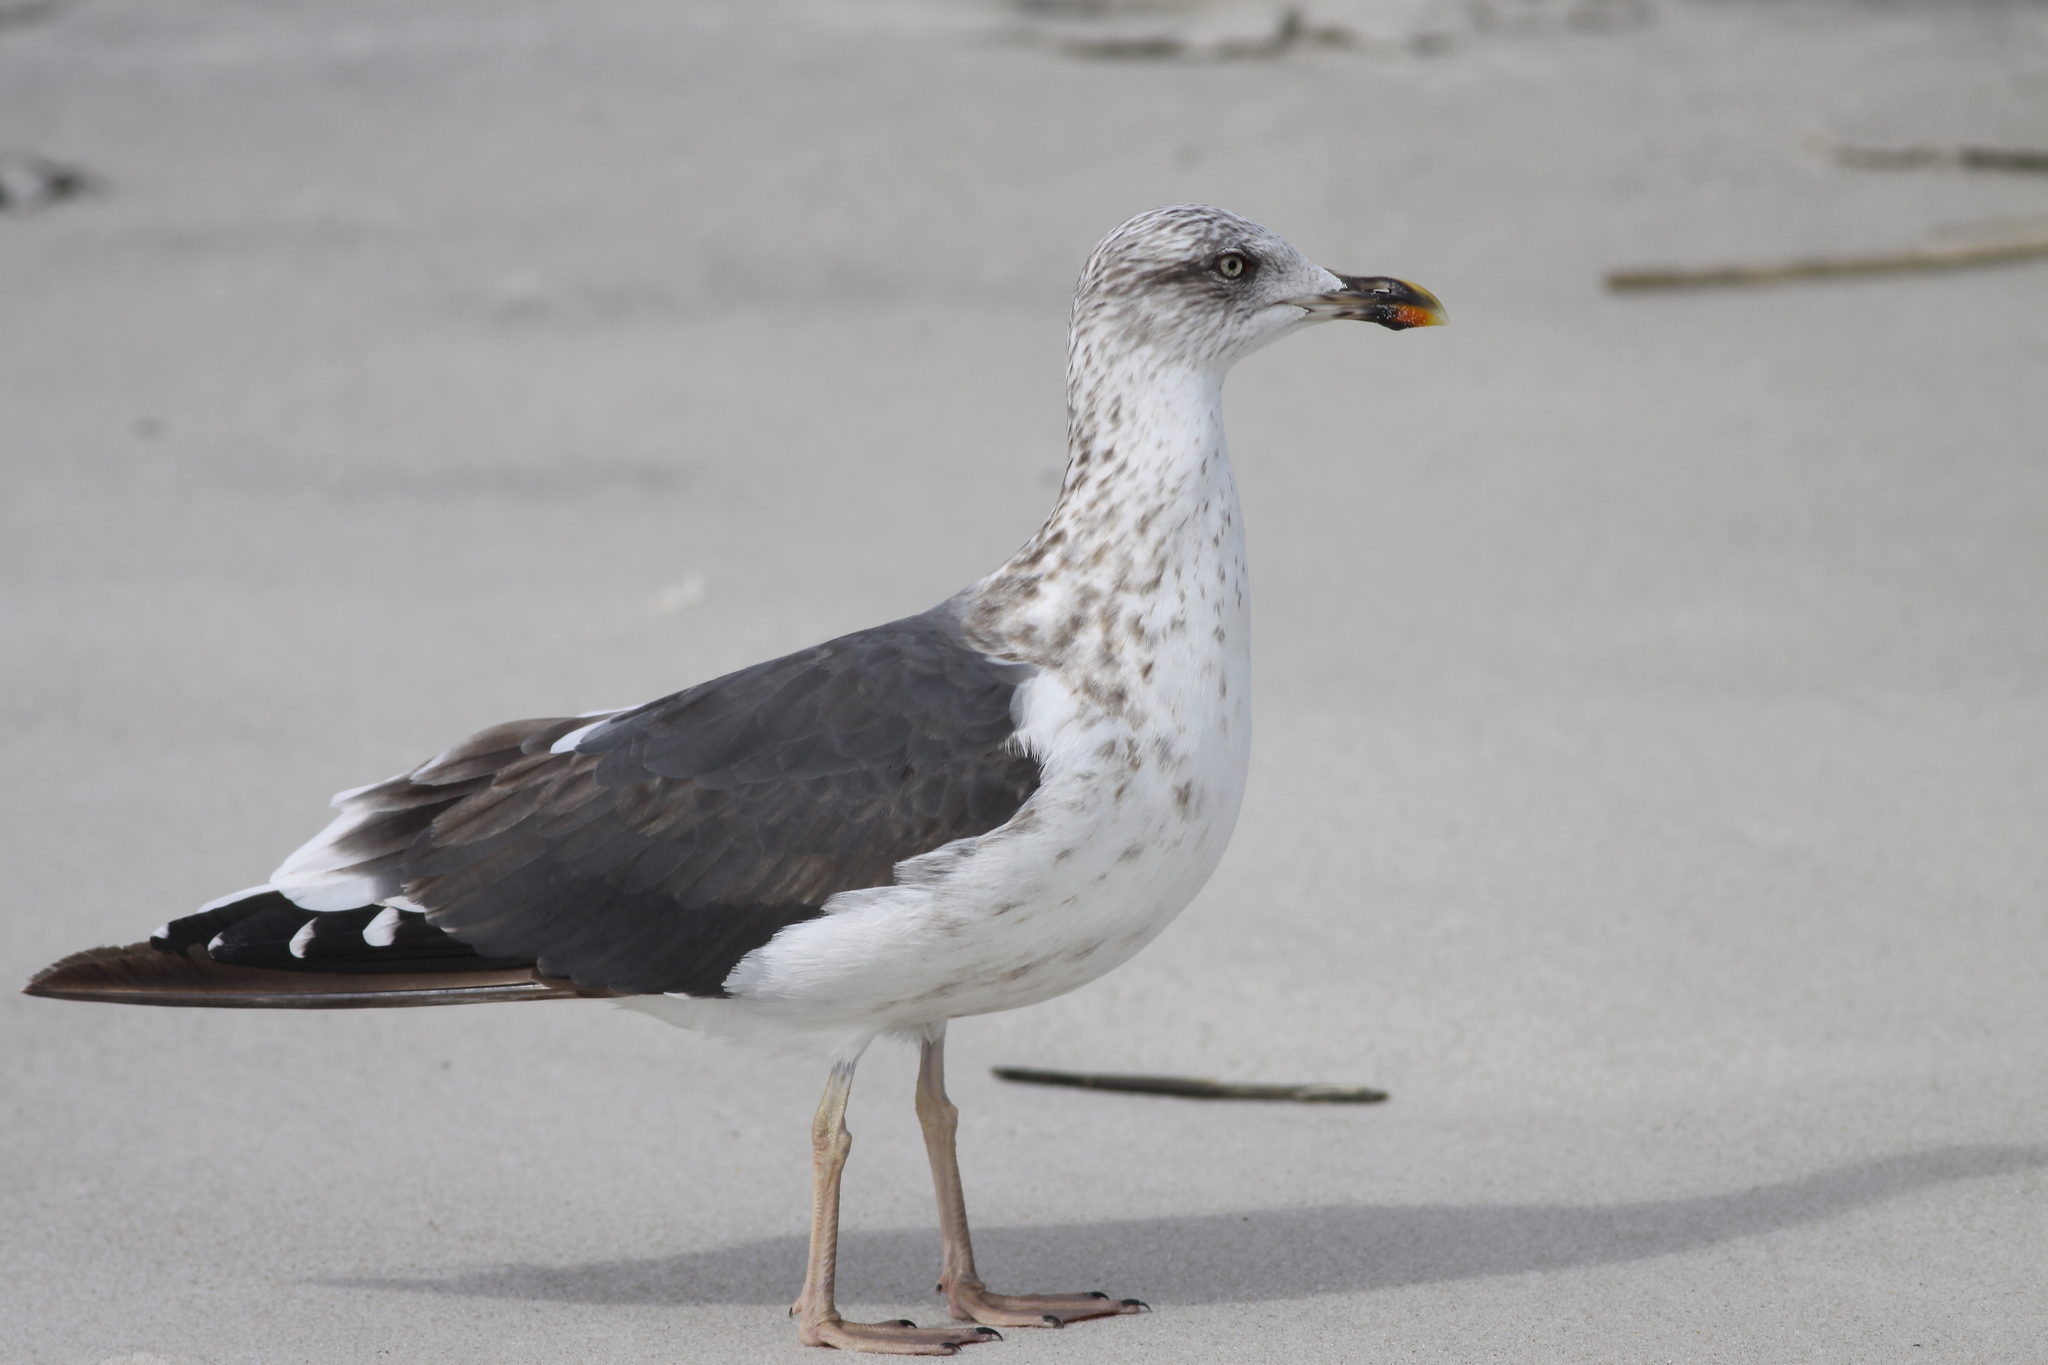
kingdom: Animalia
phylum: Chordata
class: Aves
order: Charadriiformes
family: Laridae
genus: Larus
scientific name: Larus fuscus
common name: Lesser black-backed gull
